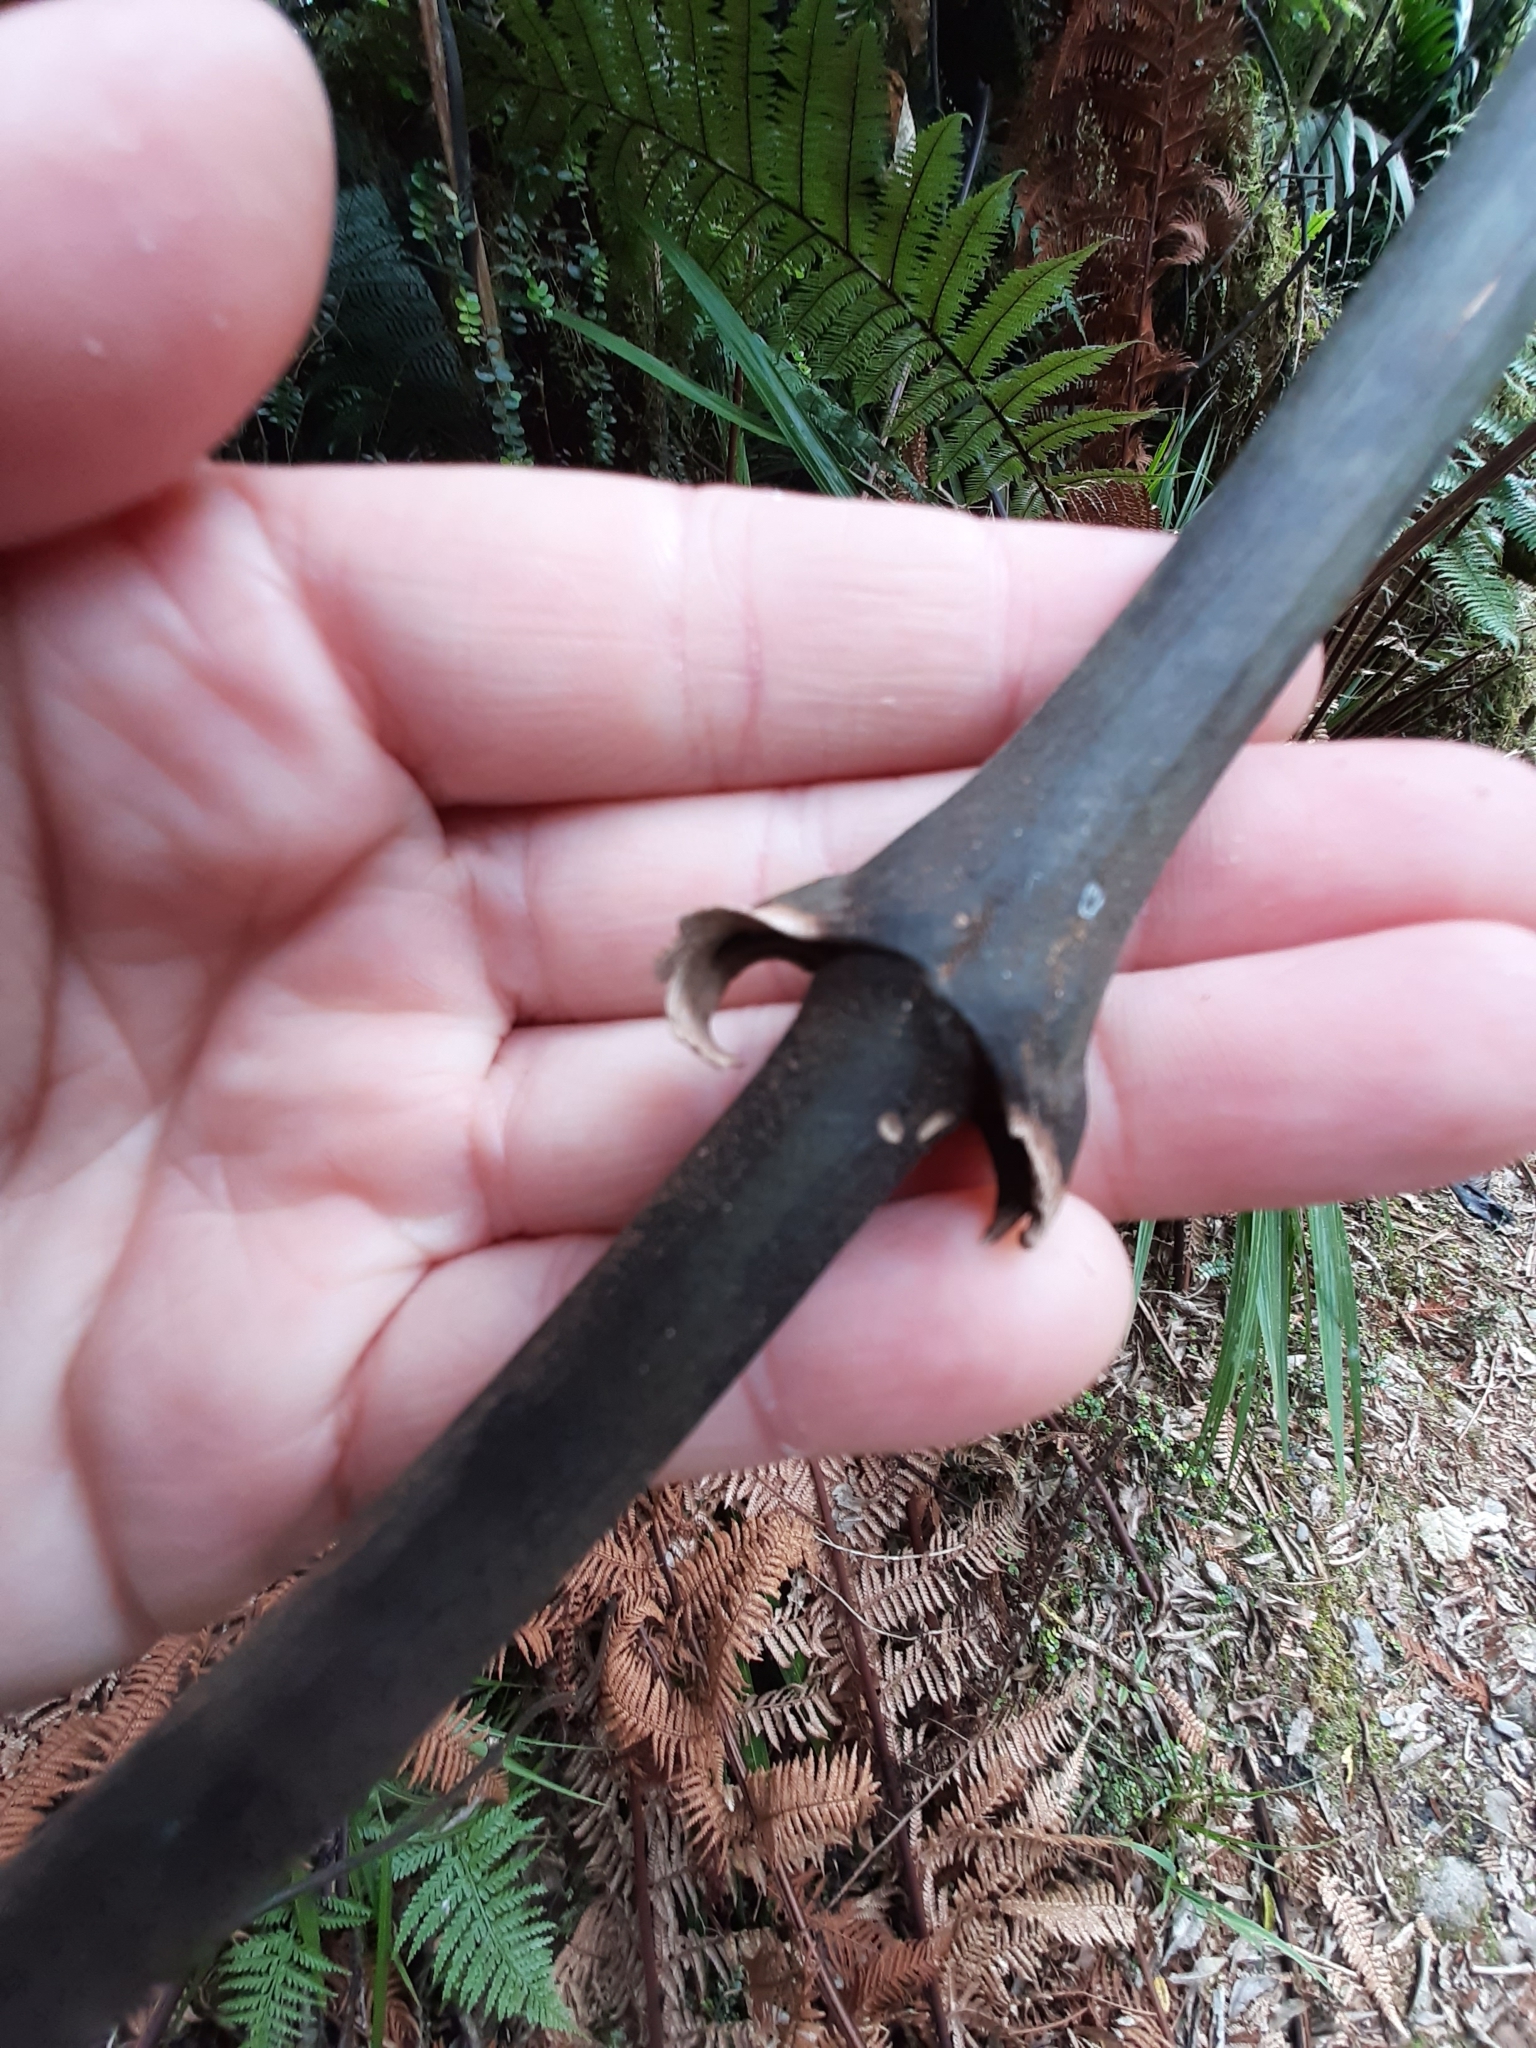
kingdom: Plantae
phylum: Tracheophyta
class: Liliopsida
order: Liliales
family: Ripogonaceae
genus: Ripogonum
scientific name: Ripogonum scandens
